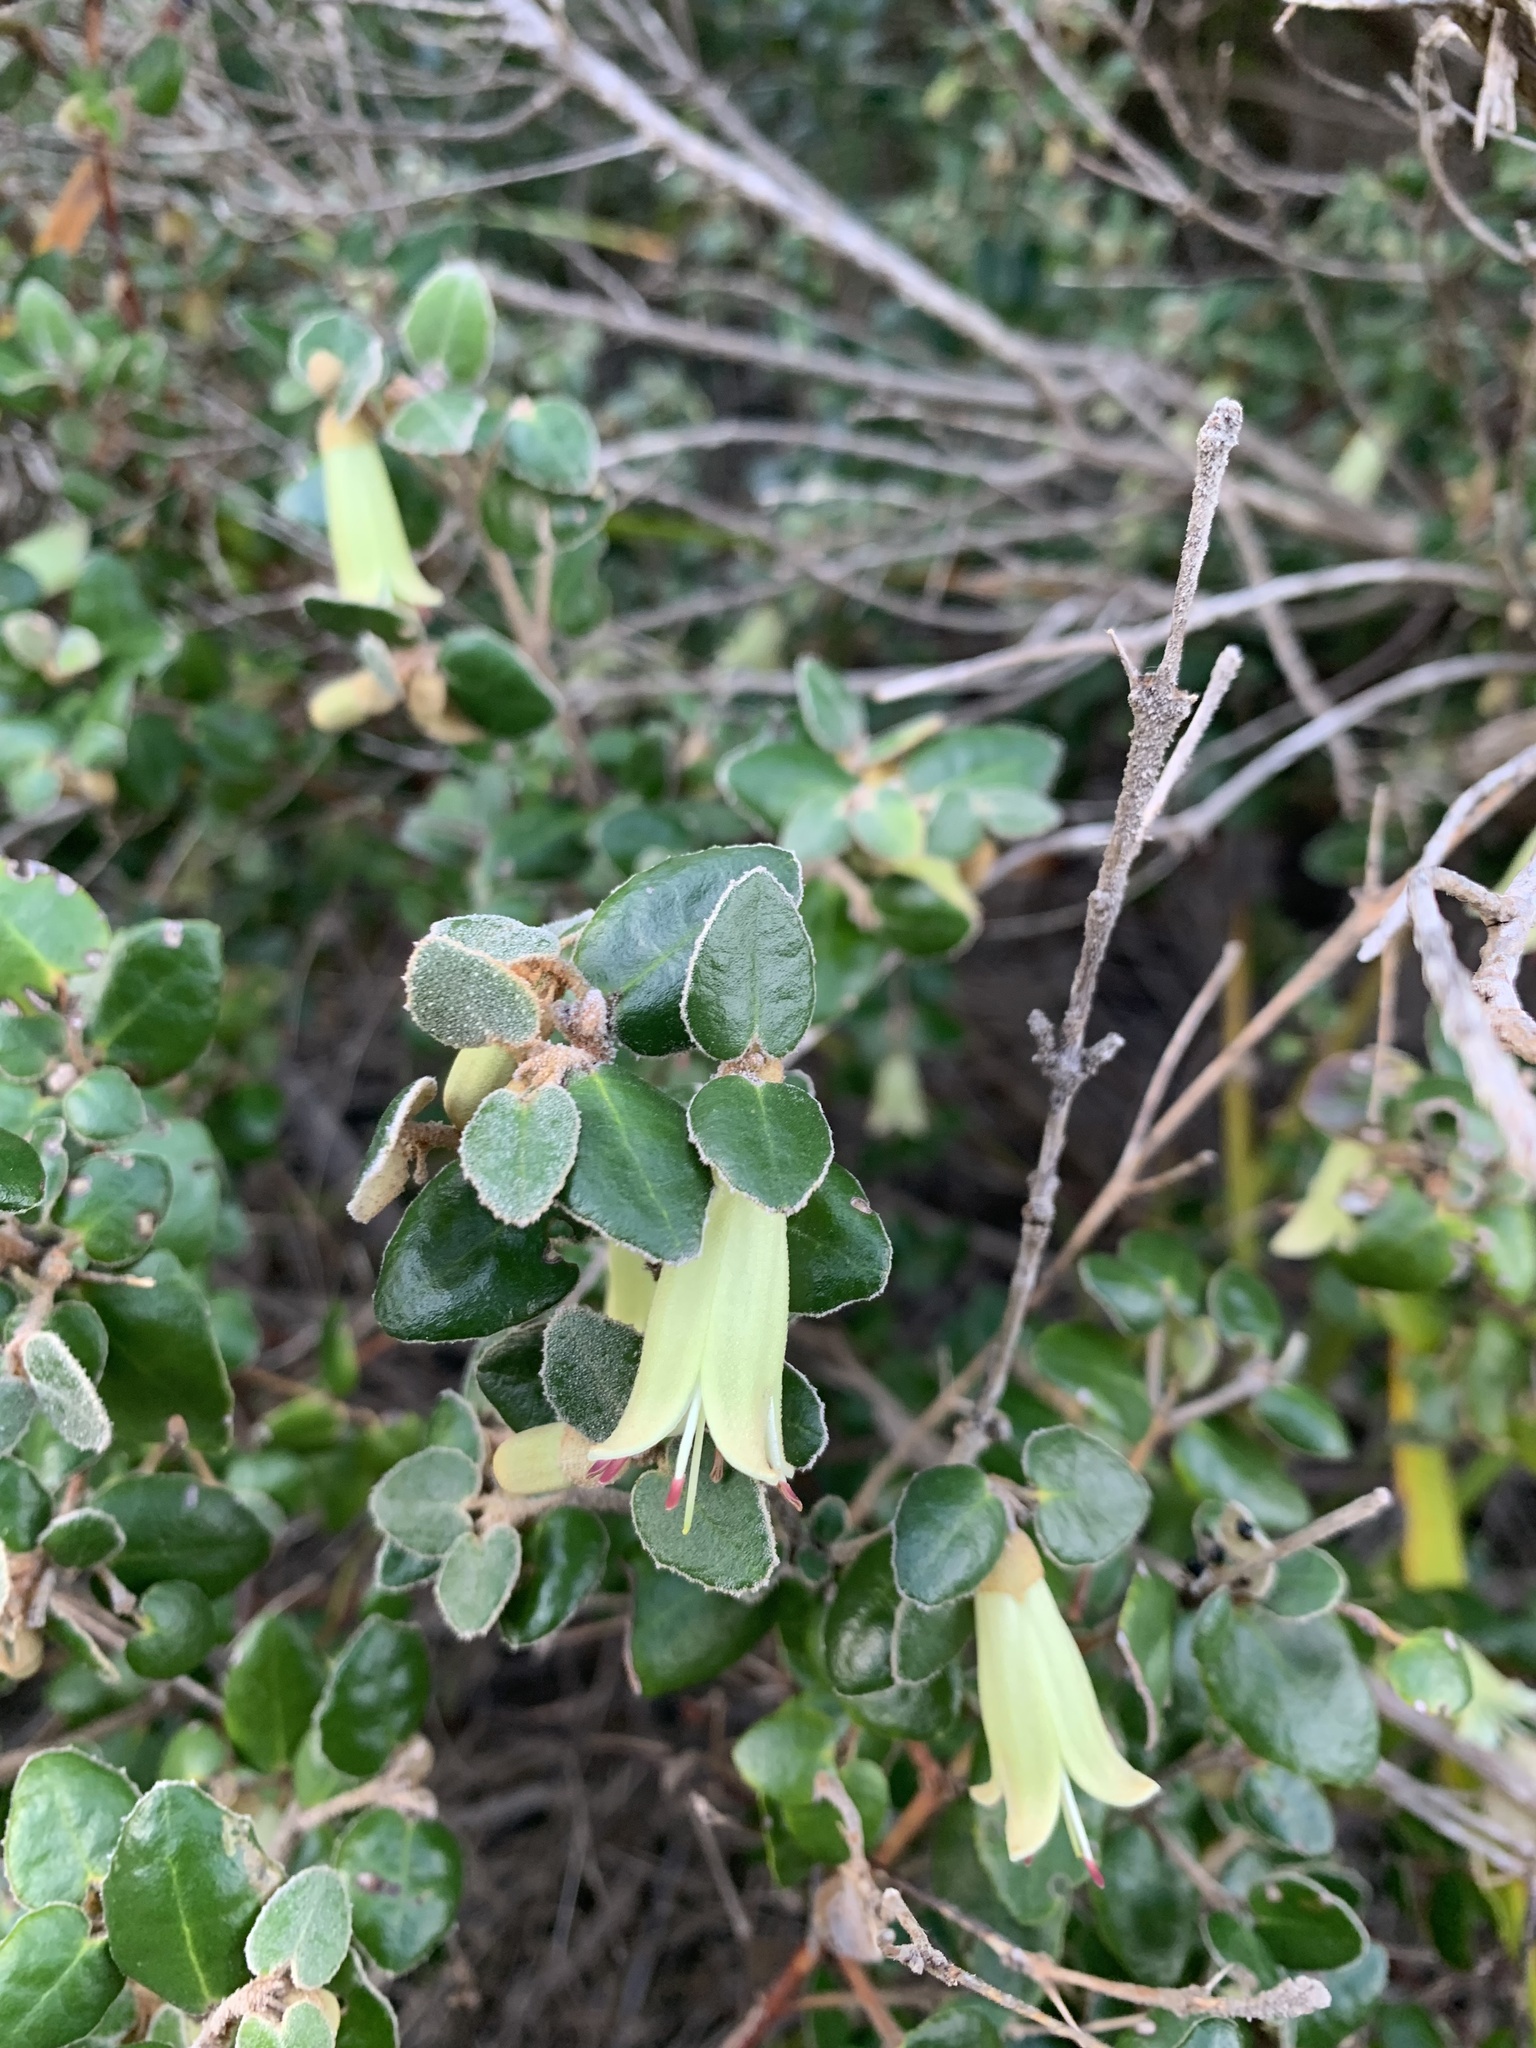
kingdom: Plantae
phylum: Tracheophyta
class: Magnoliopsida
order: Sapindales
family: Rutaceae
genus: Correa
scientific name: Correa reflexa
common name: Common correa
